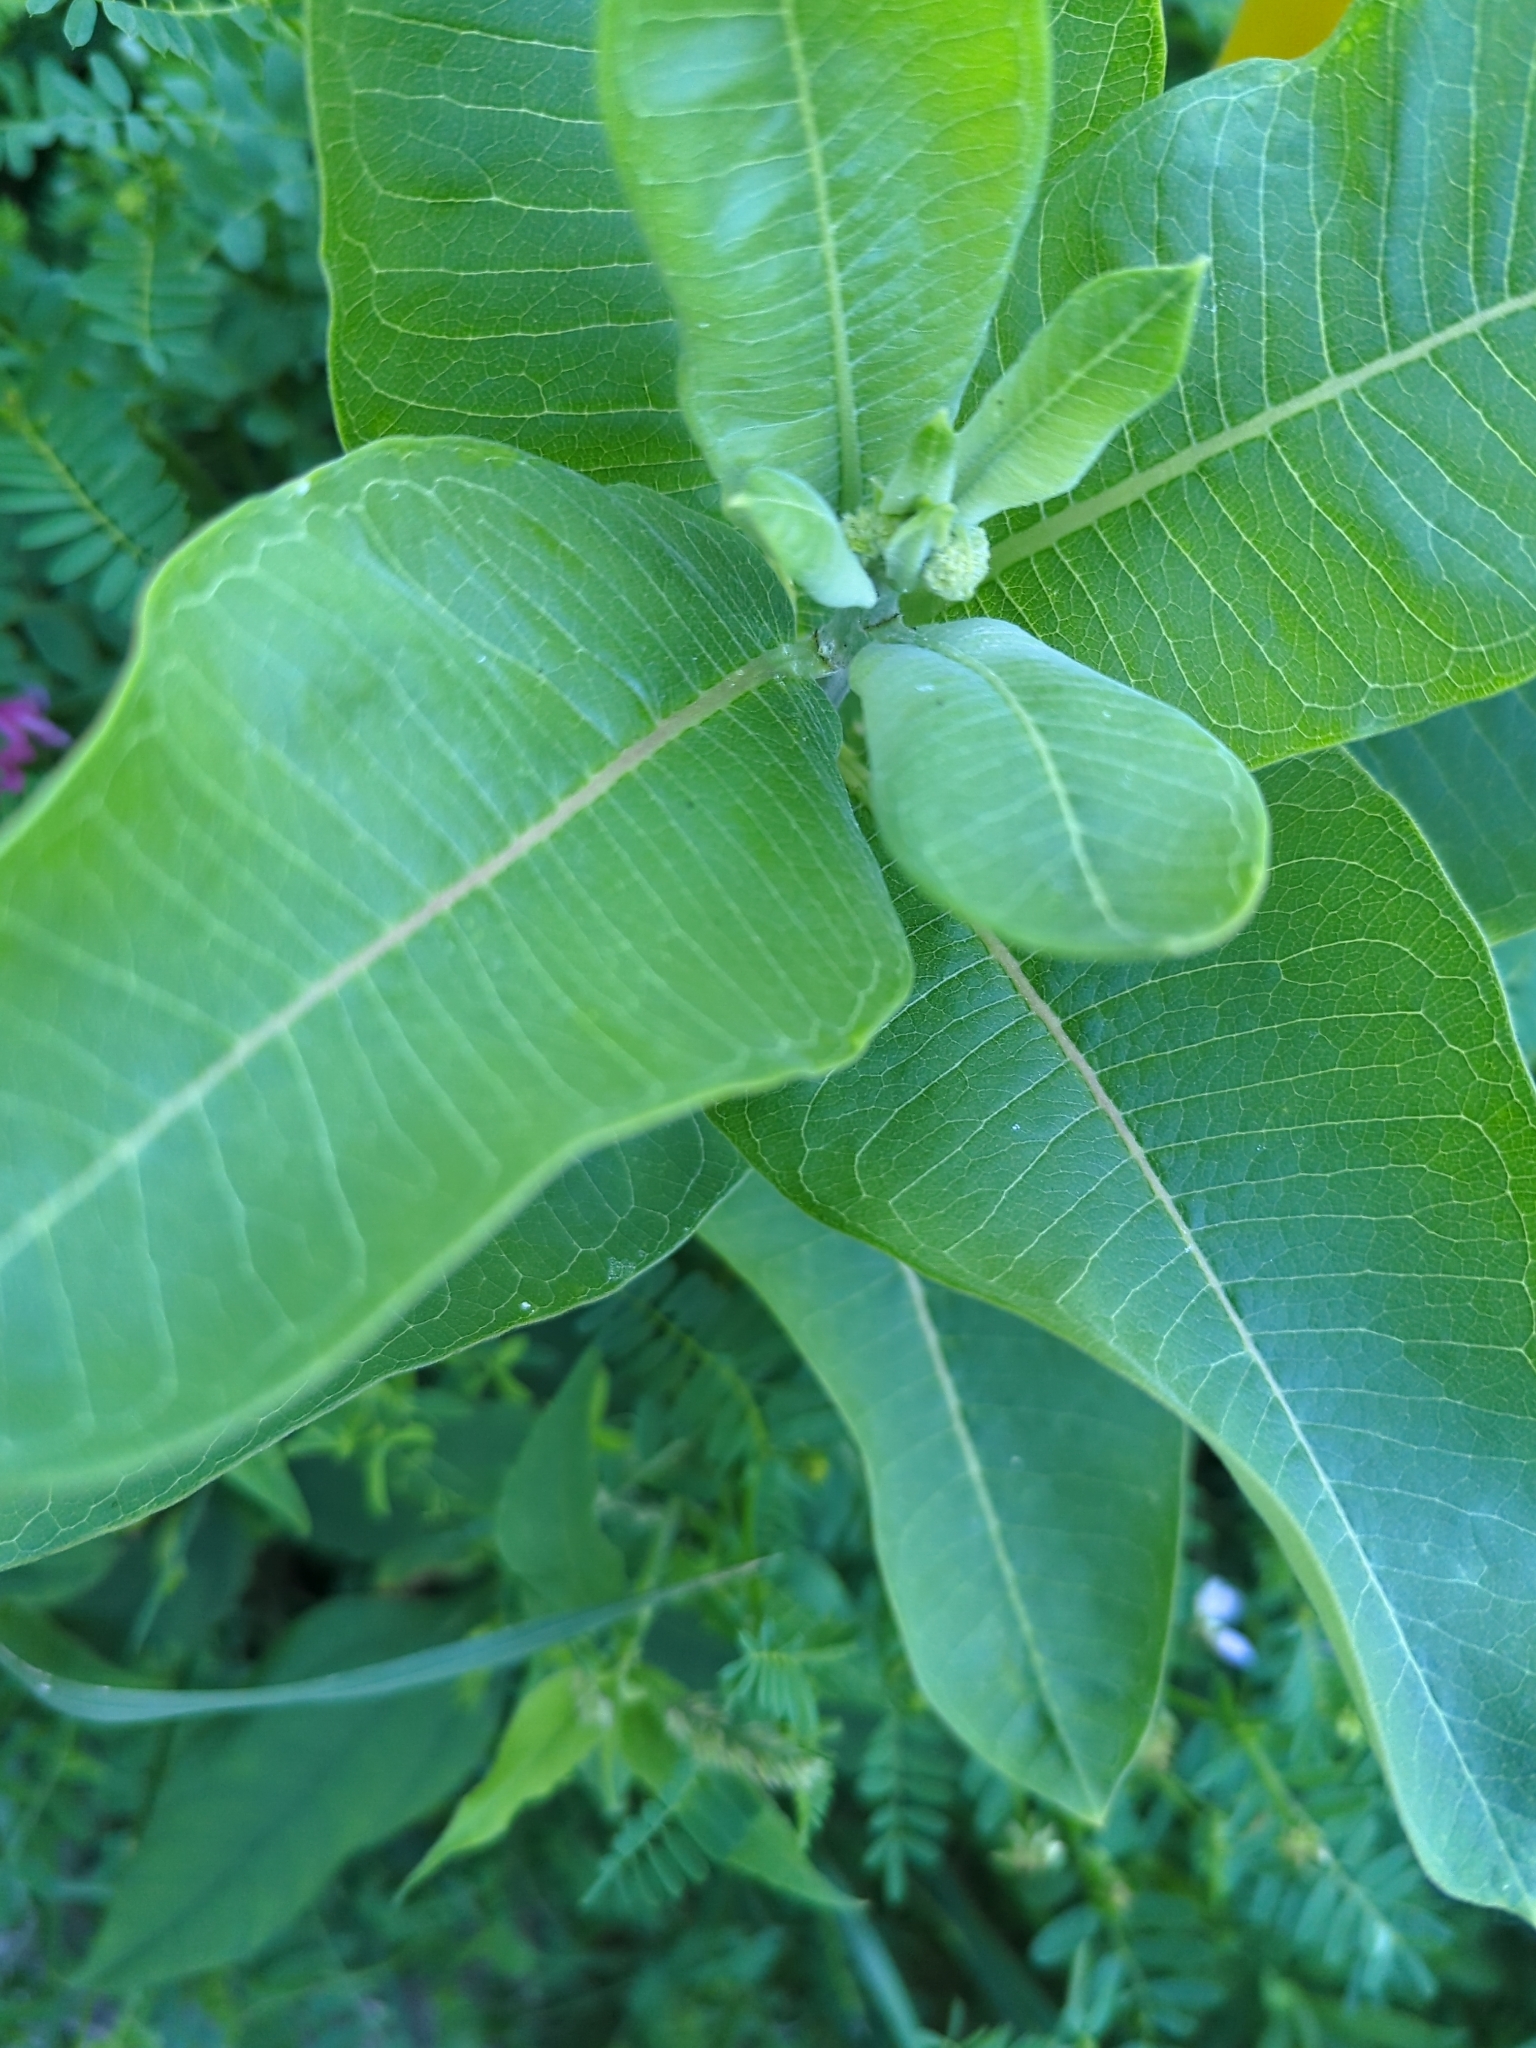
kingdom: Plantae
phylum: Tracheophyta
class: Magnoliopsida
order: Gentianales
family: Apocynaceae
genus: Asclepias
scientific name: Asclepias syriaca
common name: Common milkweed
